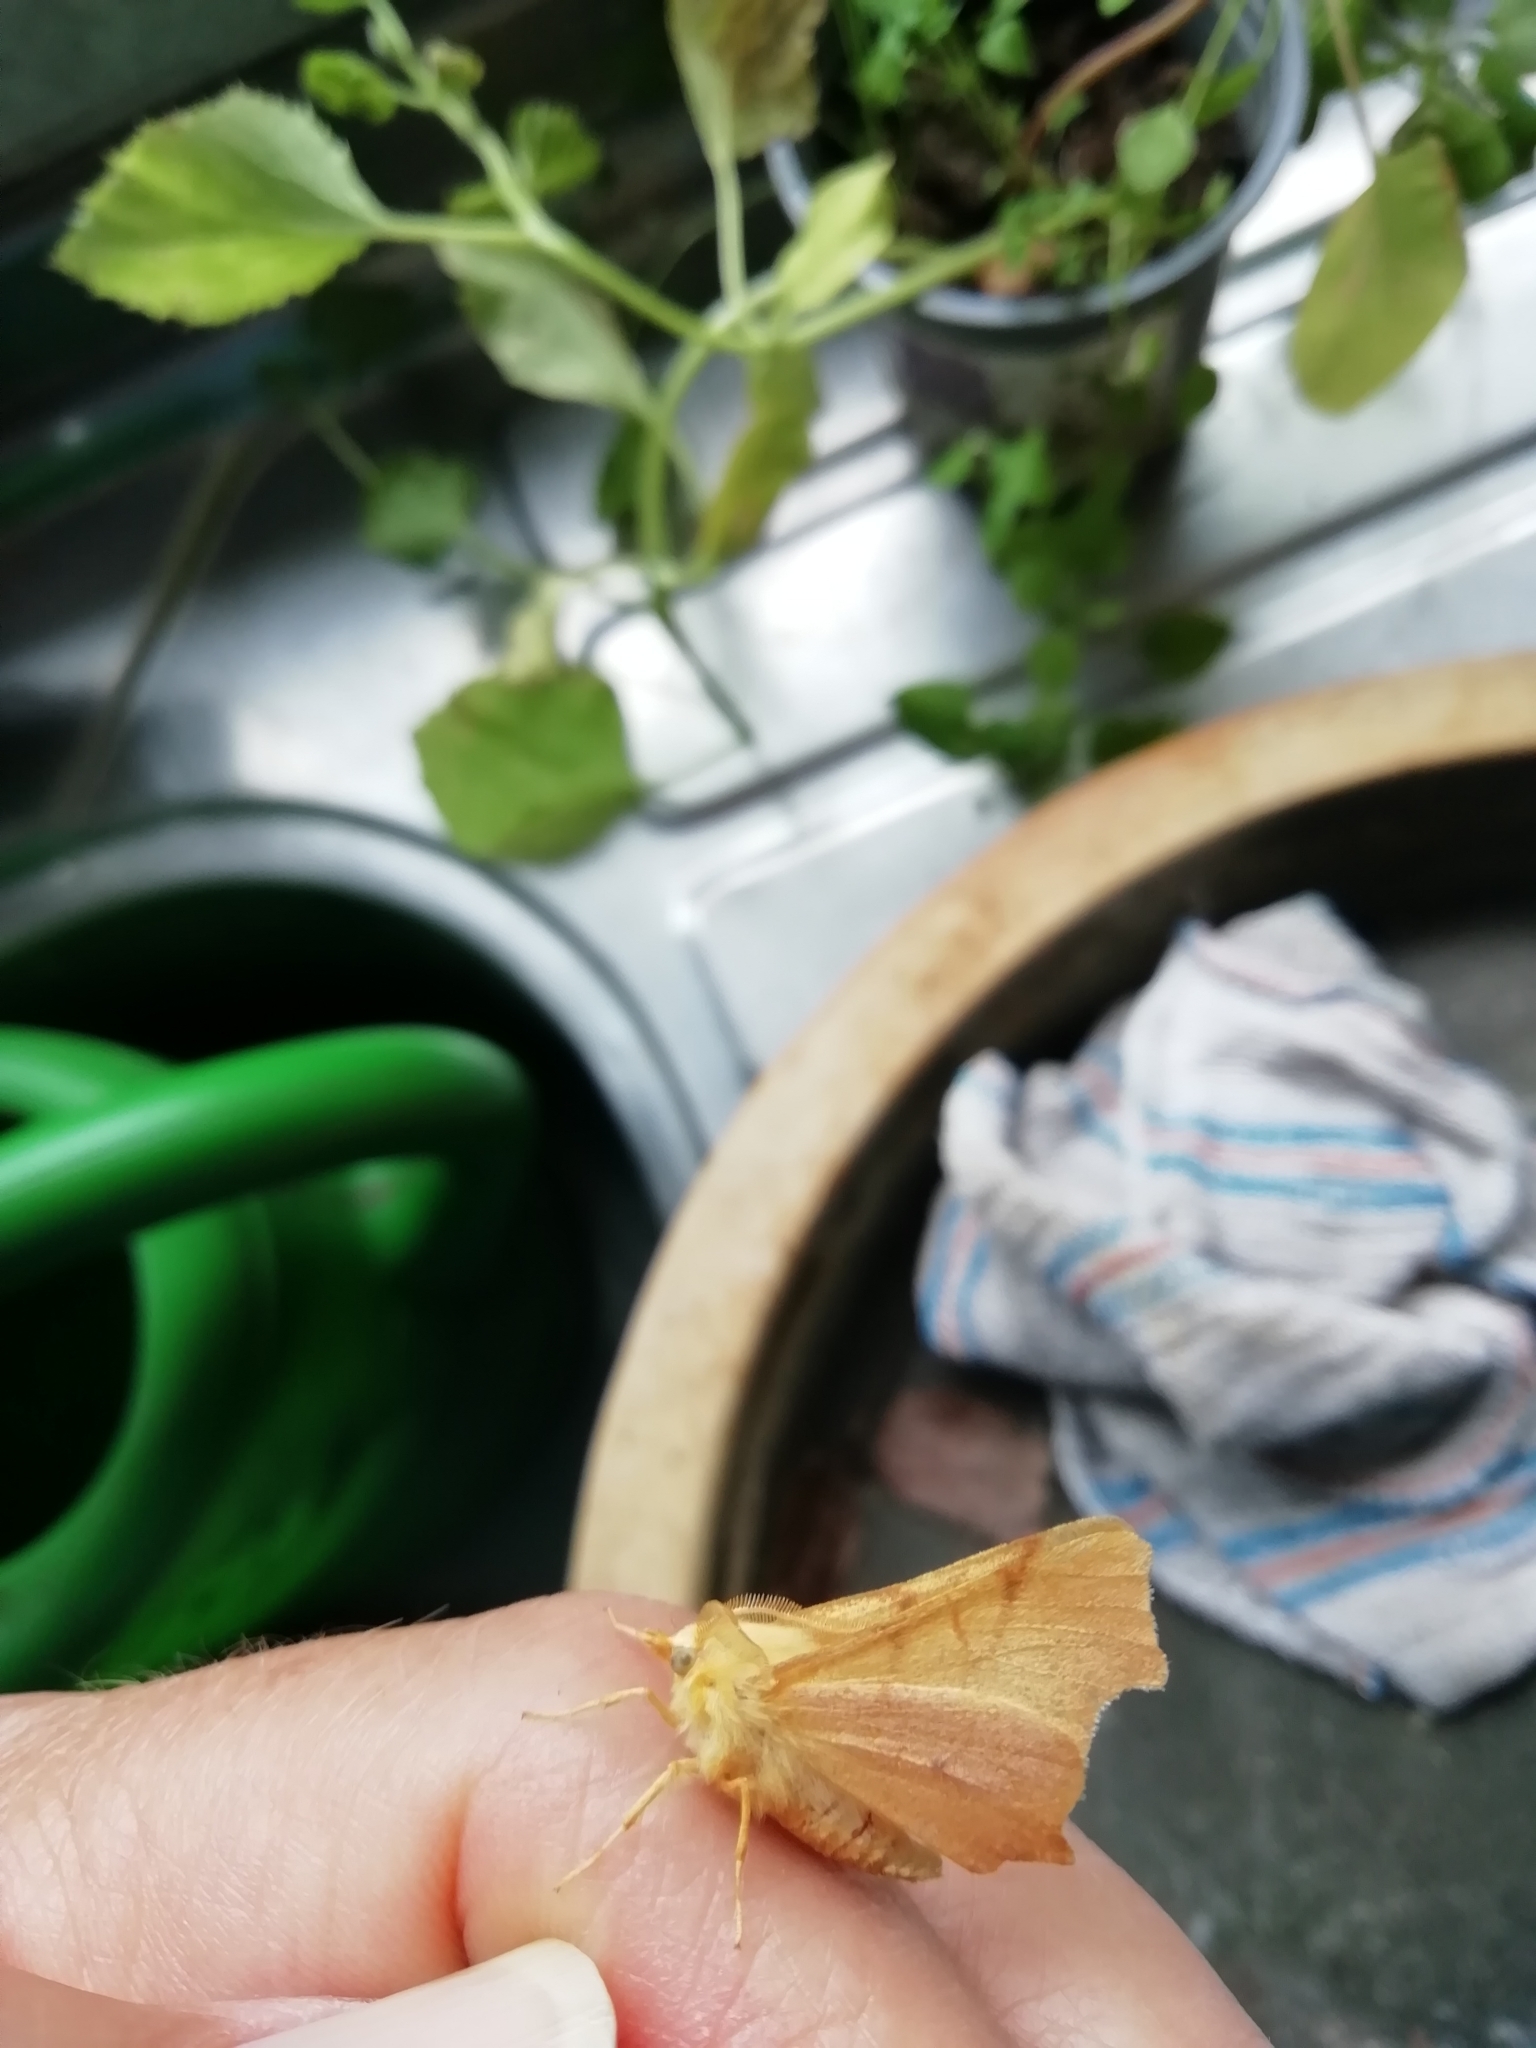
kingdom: Animalia
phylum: Arthropoda
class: Insecta
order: Lepidoptera
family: Geometridae
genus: Ennomos
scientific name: Ennomos erosaria
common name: September thorn
